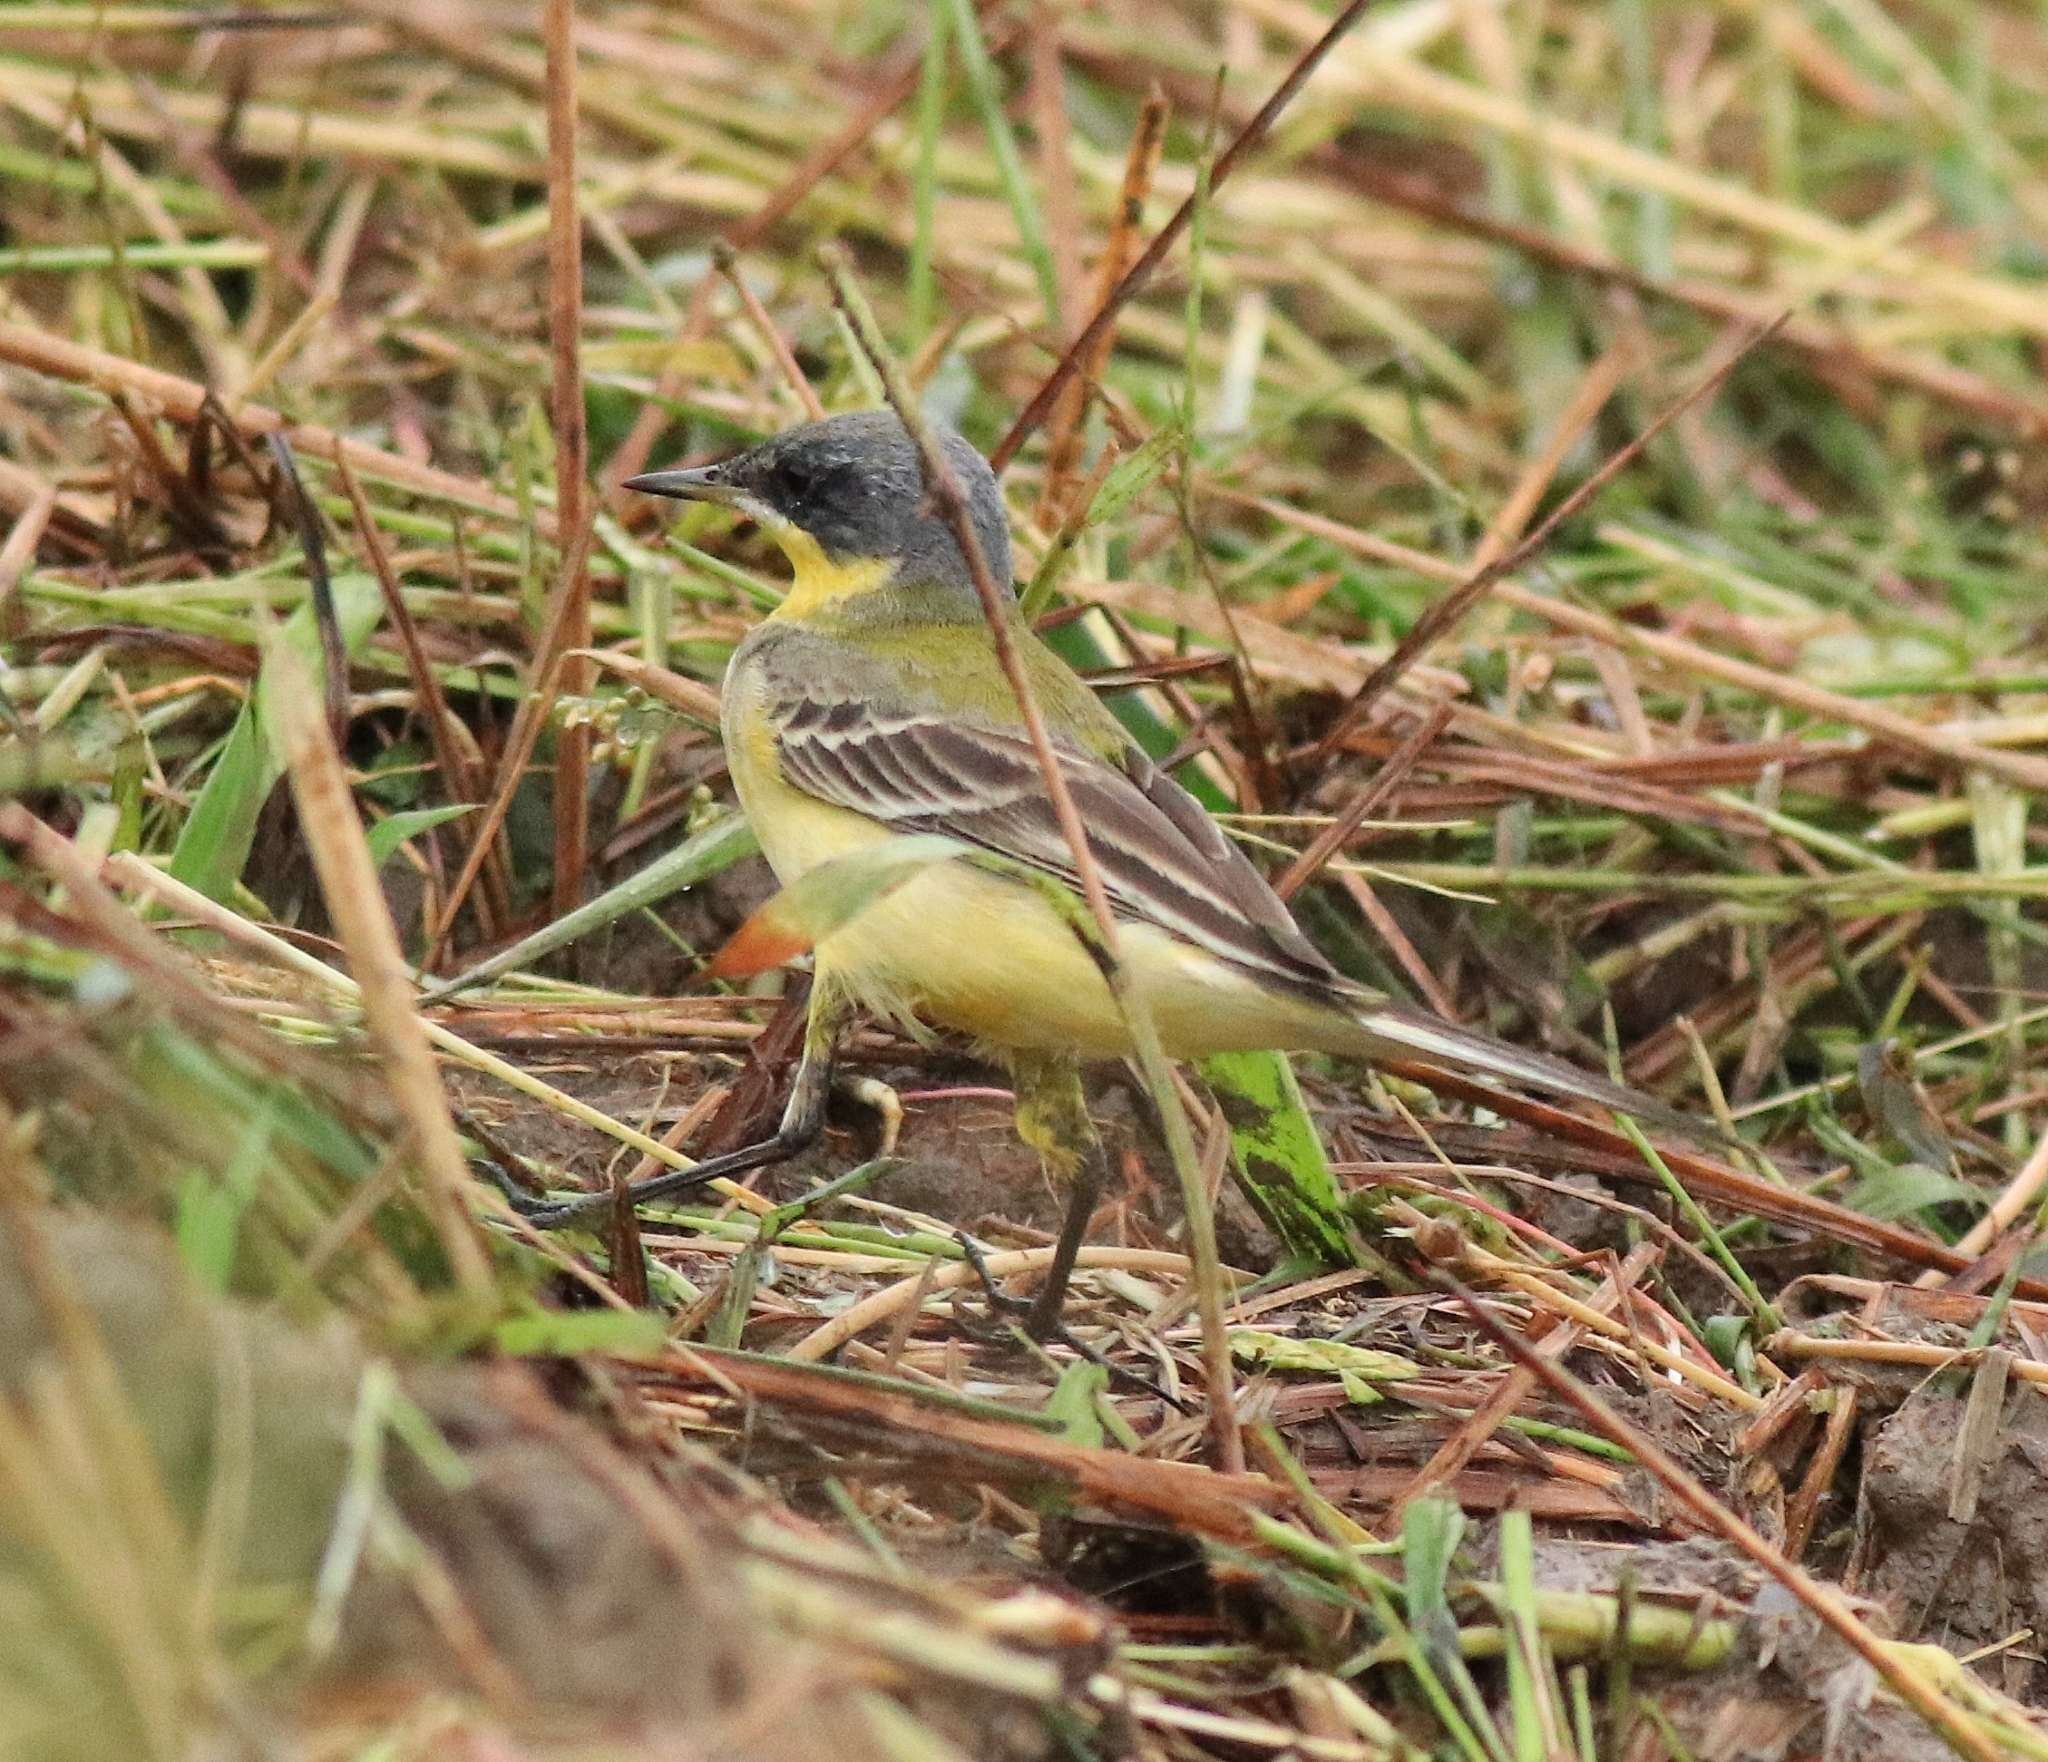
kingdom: Animalia
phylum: Chordata
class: Aves
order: Passeriformes
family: Motacillidae
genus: Motacilla
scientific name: Motacilla flava
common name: Western yellow wagtail
